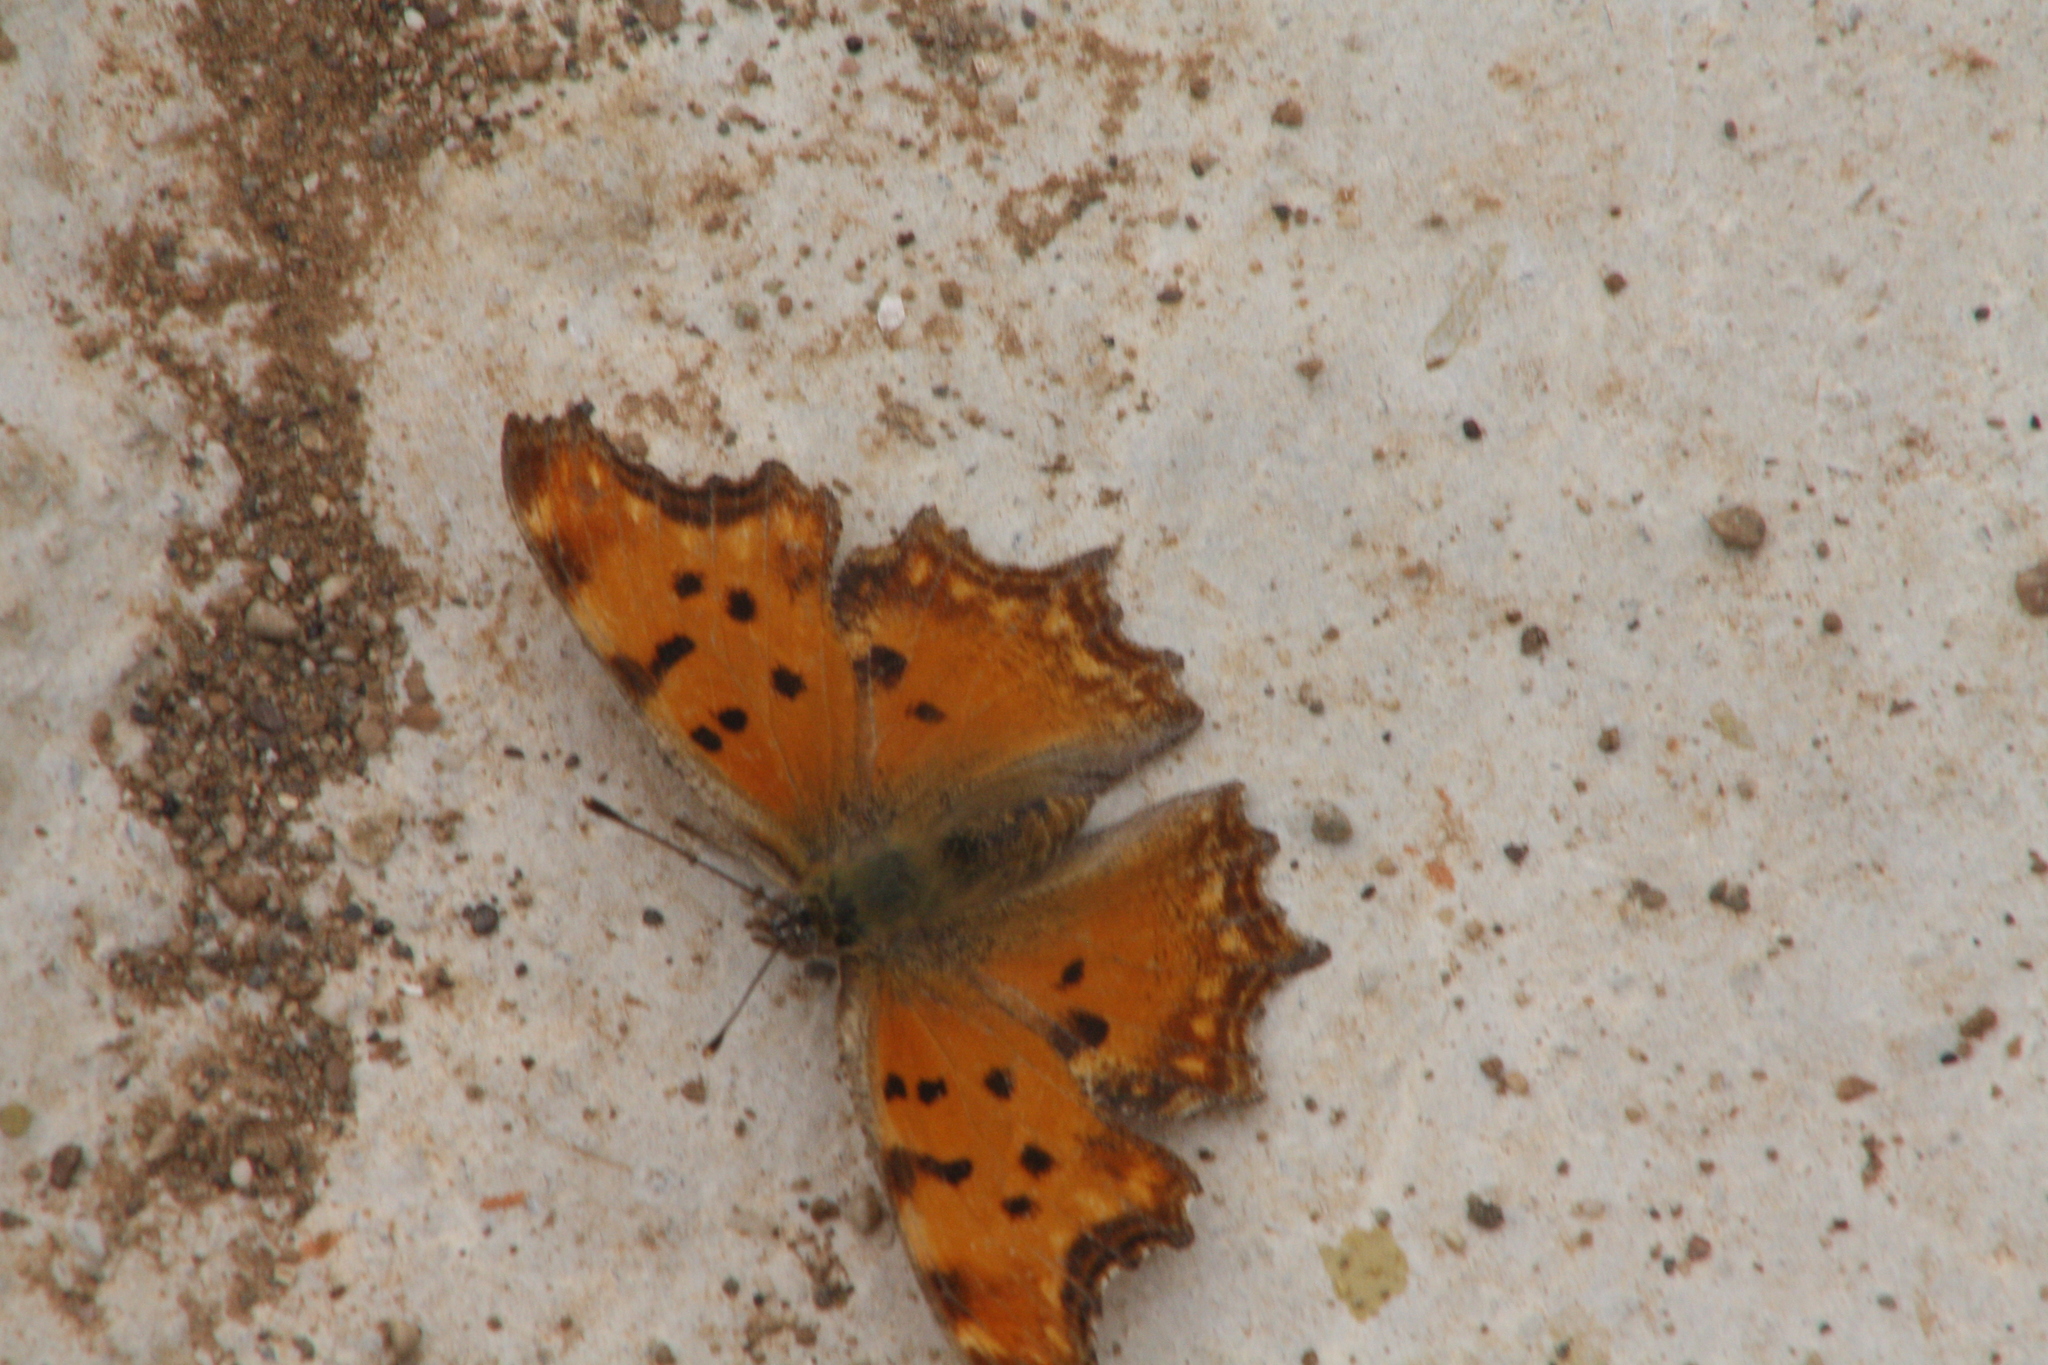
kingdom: Animalia
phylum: Arthropoda
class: Insecta
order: Lepidoptera
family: Nymphalidae
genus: Polygonia
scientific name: Polygonia egea
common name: Southern comma
